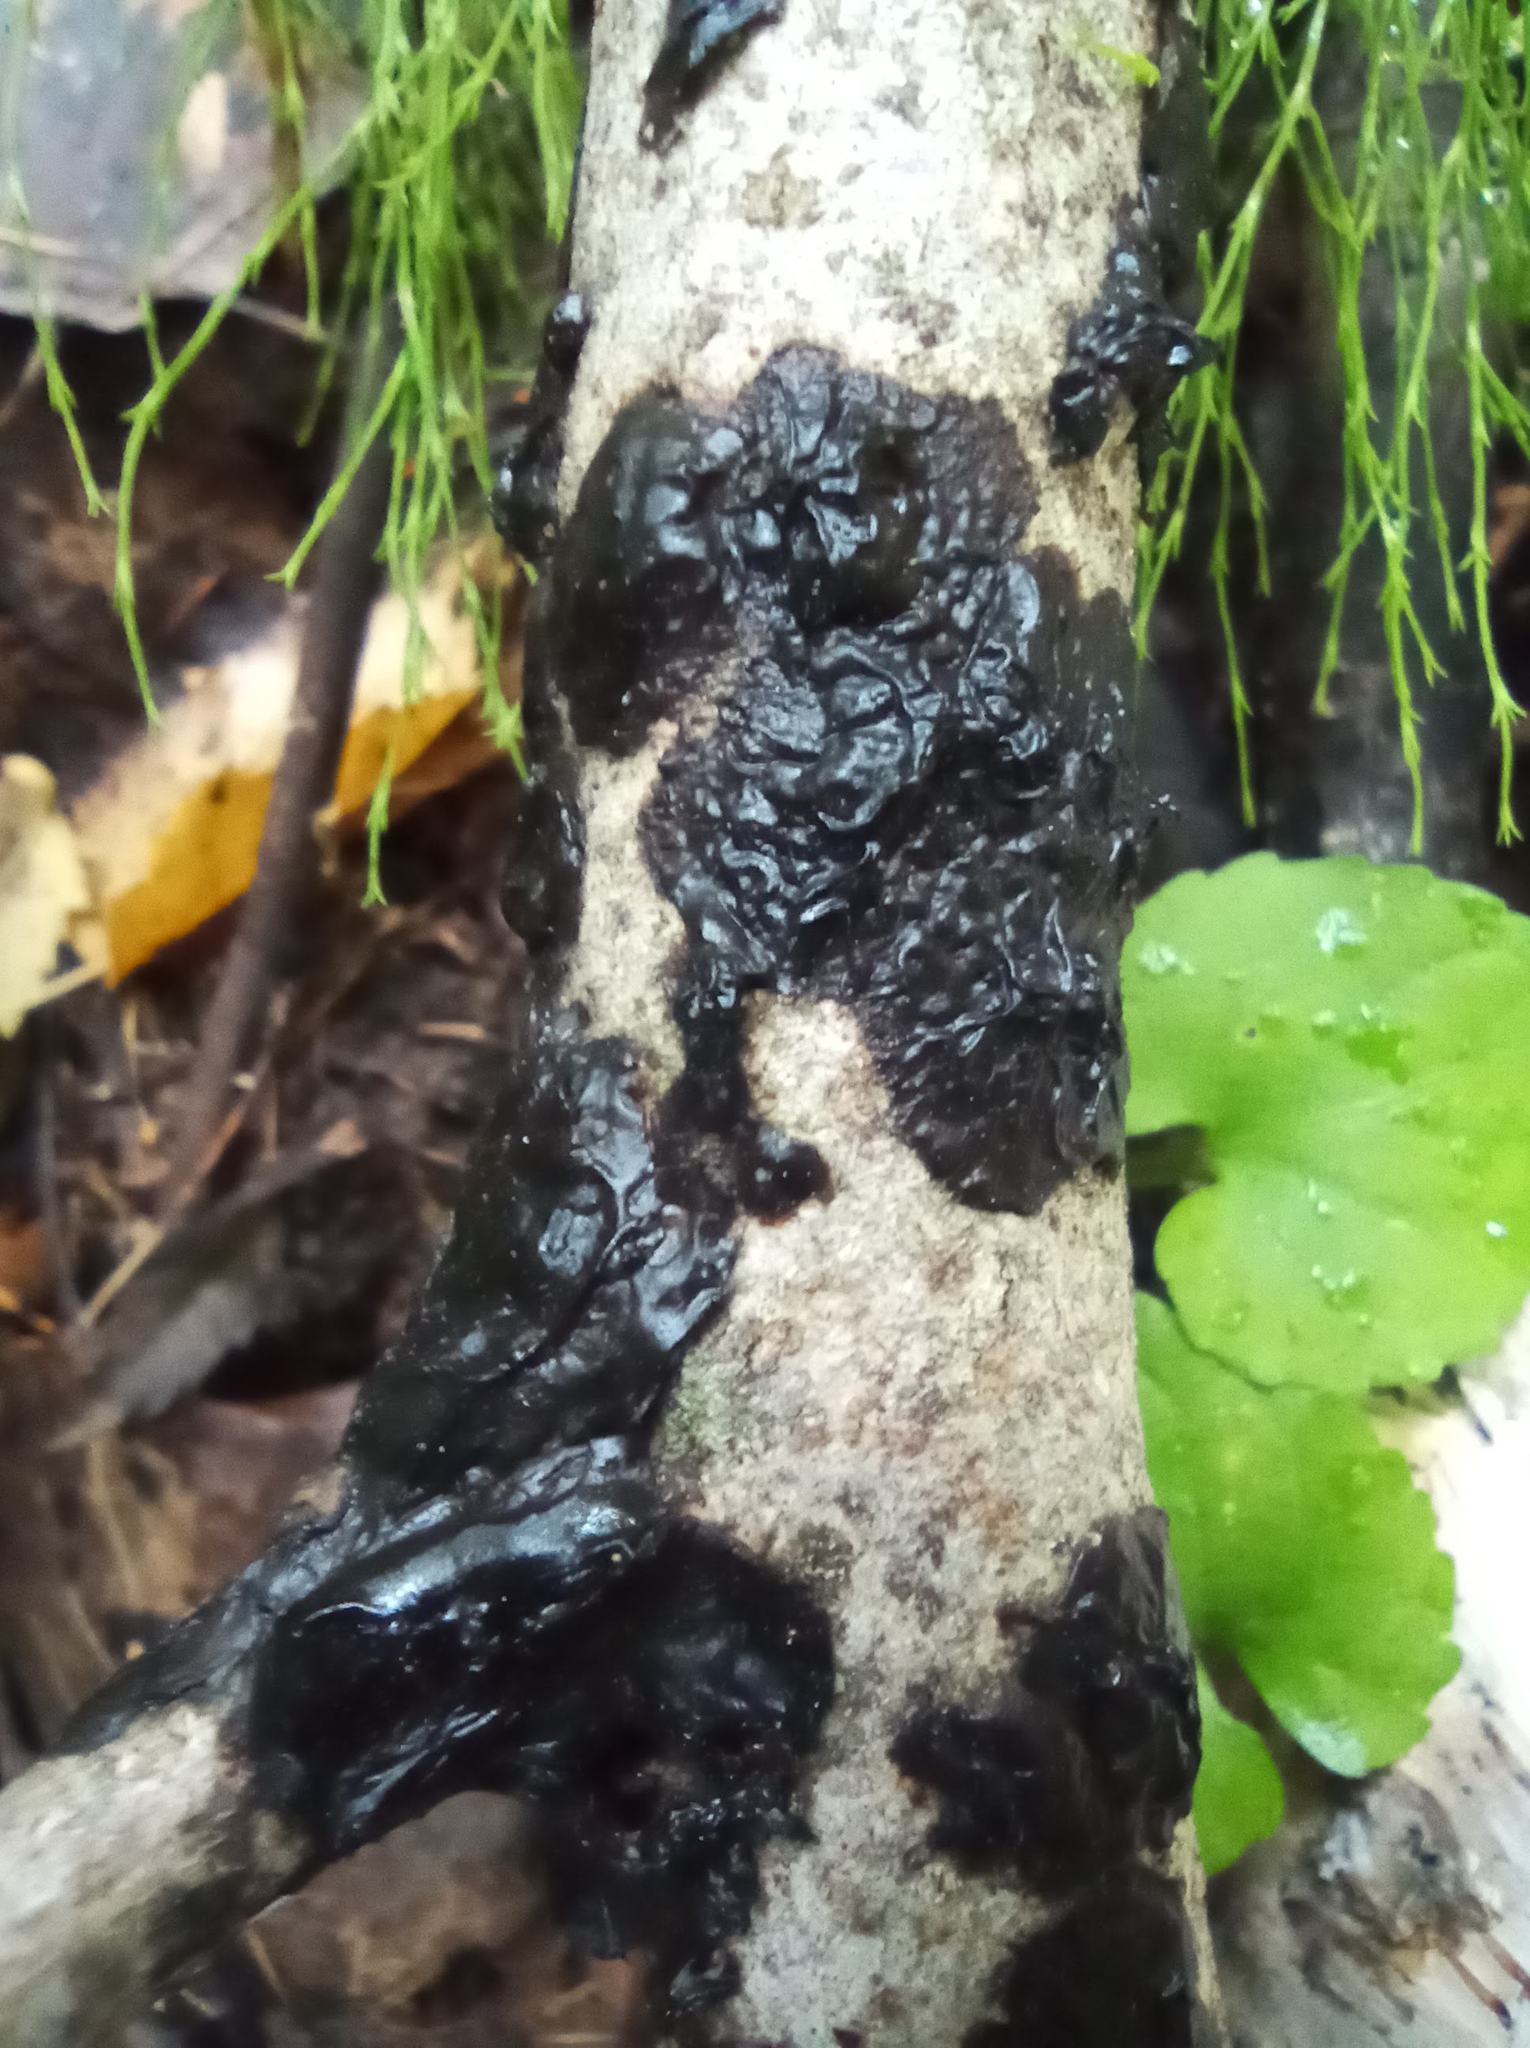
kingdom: Fungi
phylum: Basidiomycota
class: Agaricomycetes
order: Auriculariales
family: Auriculariaceae
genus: Exidia
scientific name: Exidia glandulosa
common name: Witches' butter
